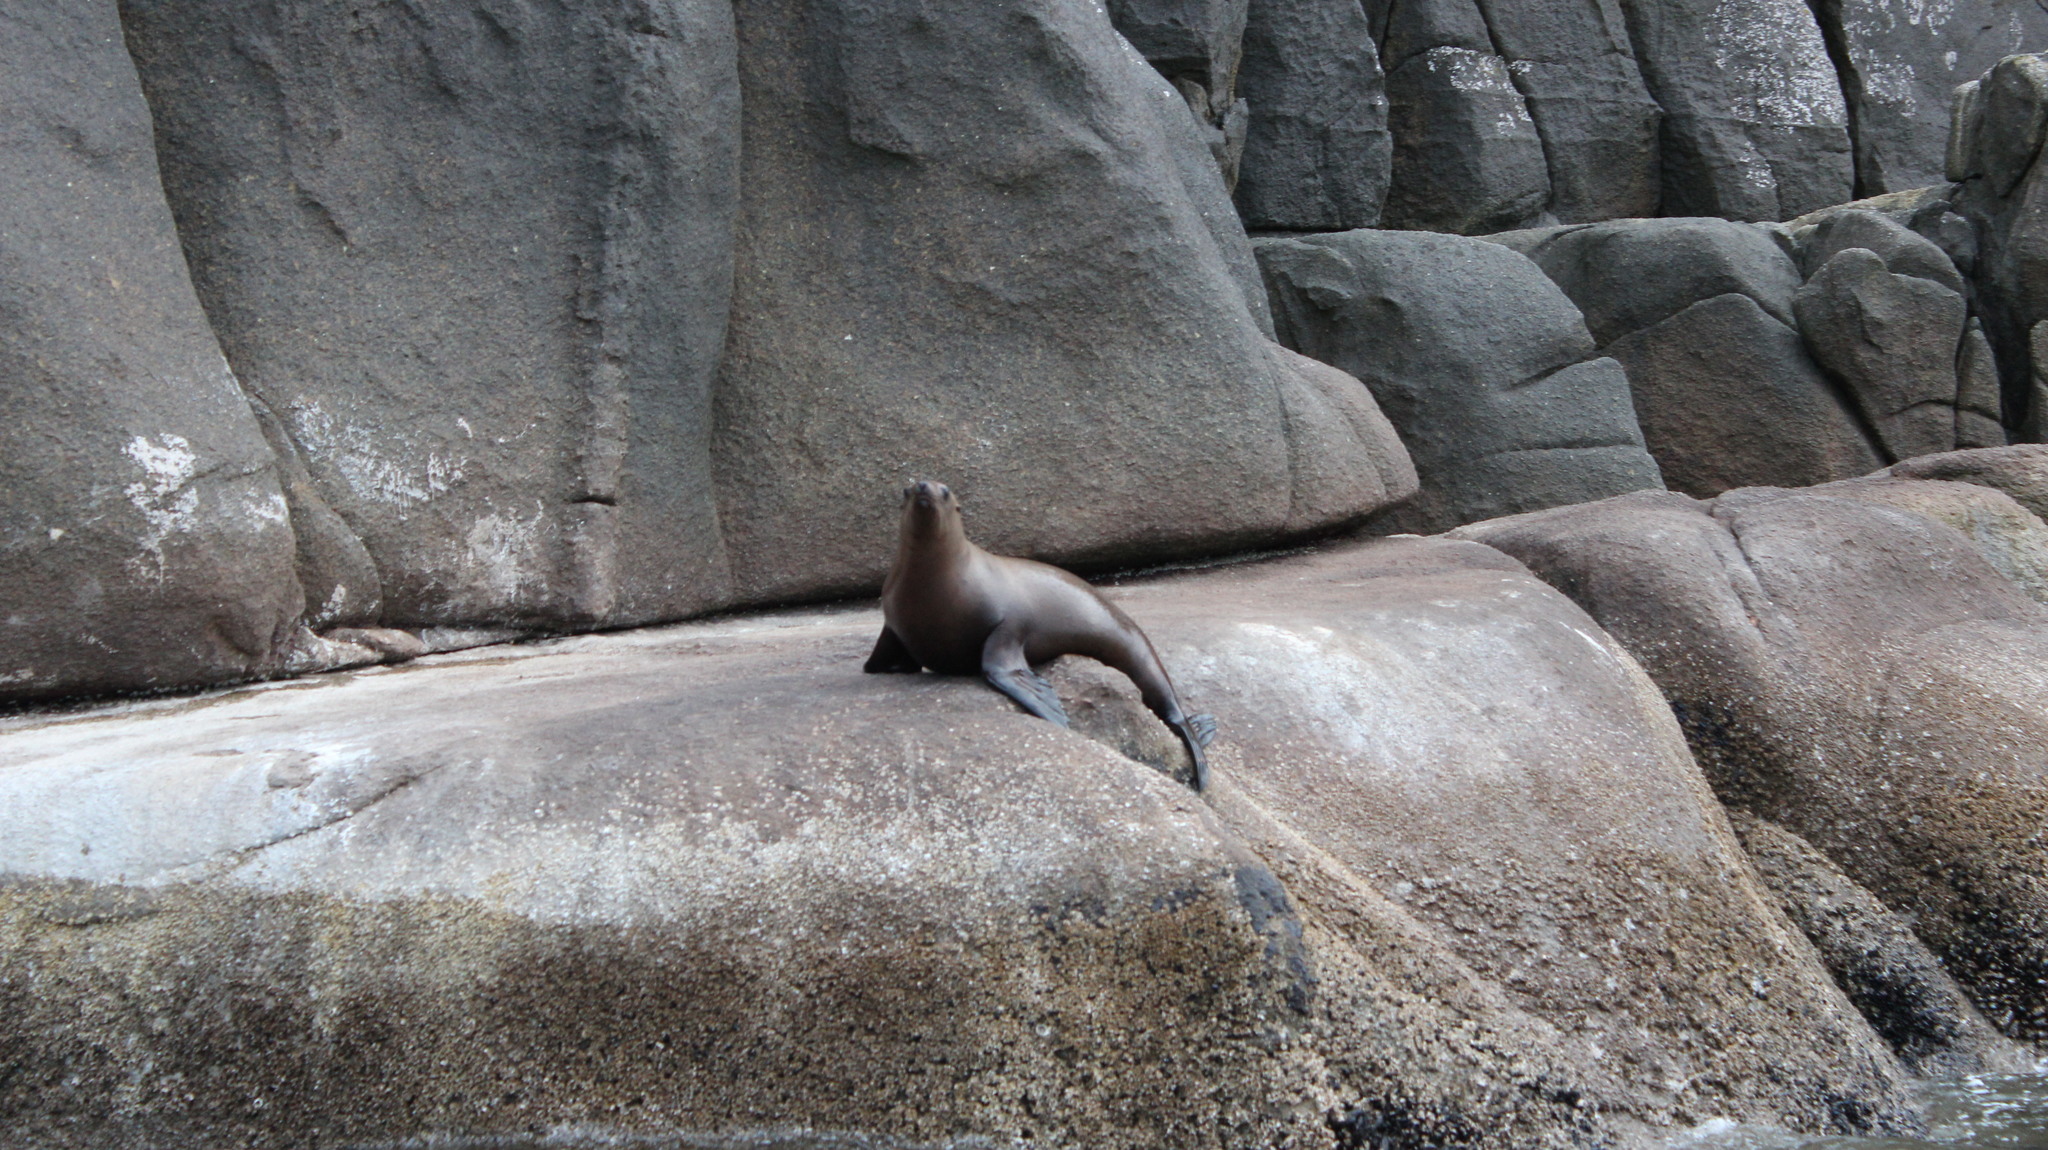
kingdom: Animalia
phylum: Chordata
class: Mammalia
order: Carnivora
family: Otariidae
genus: Eumetopias
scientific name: Eumetopias jubatus
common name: Steller sea lion
